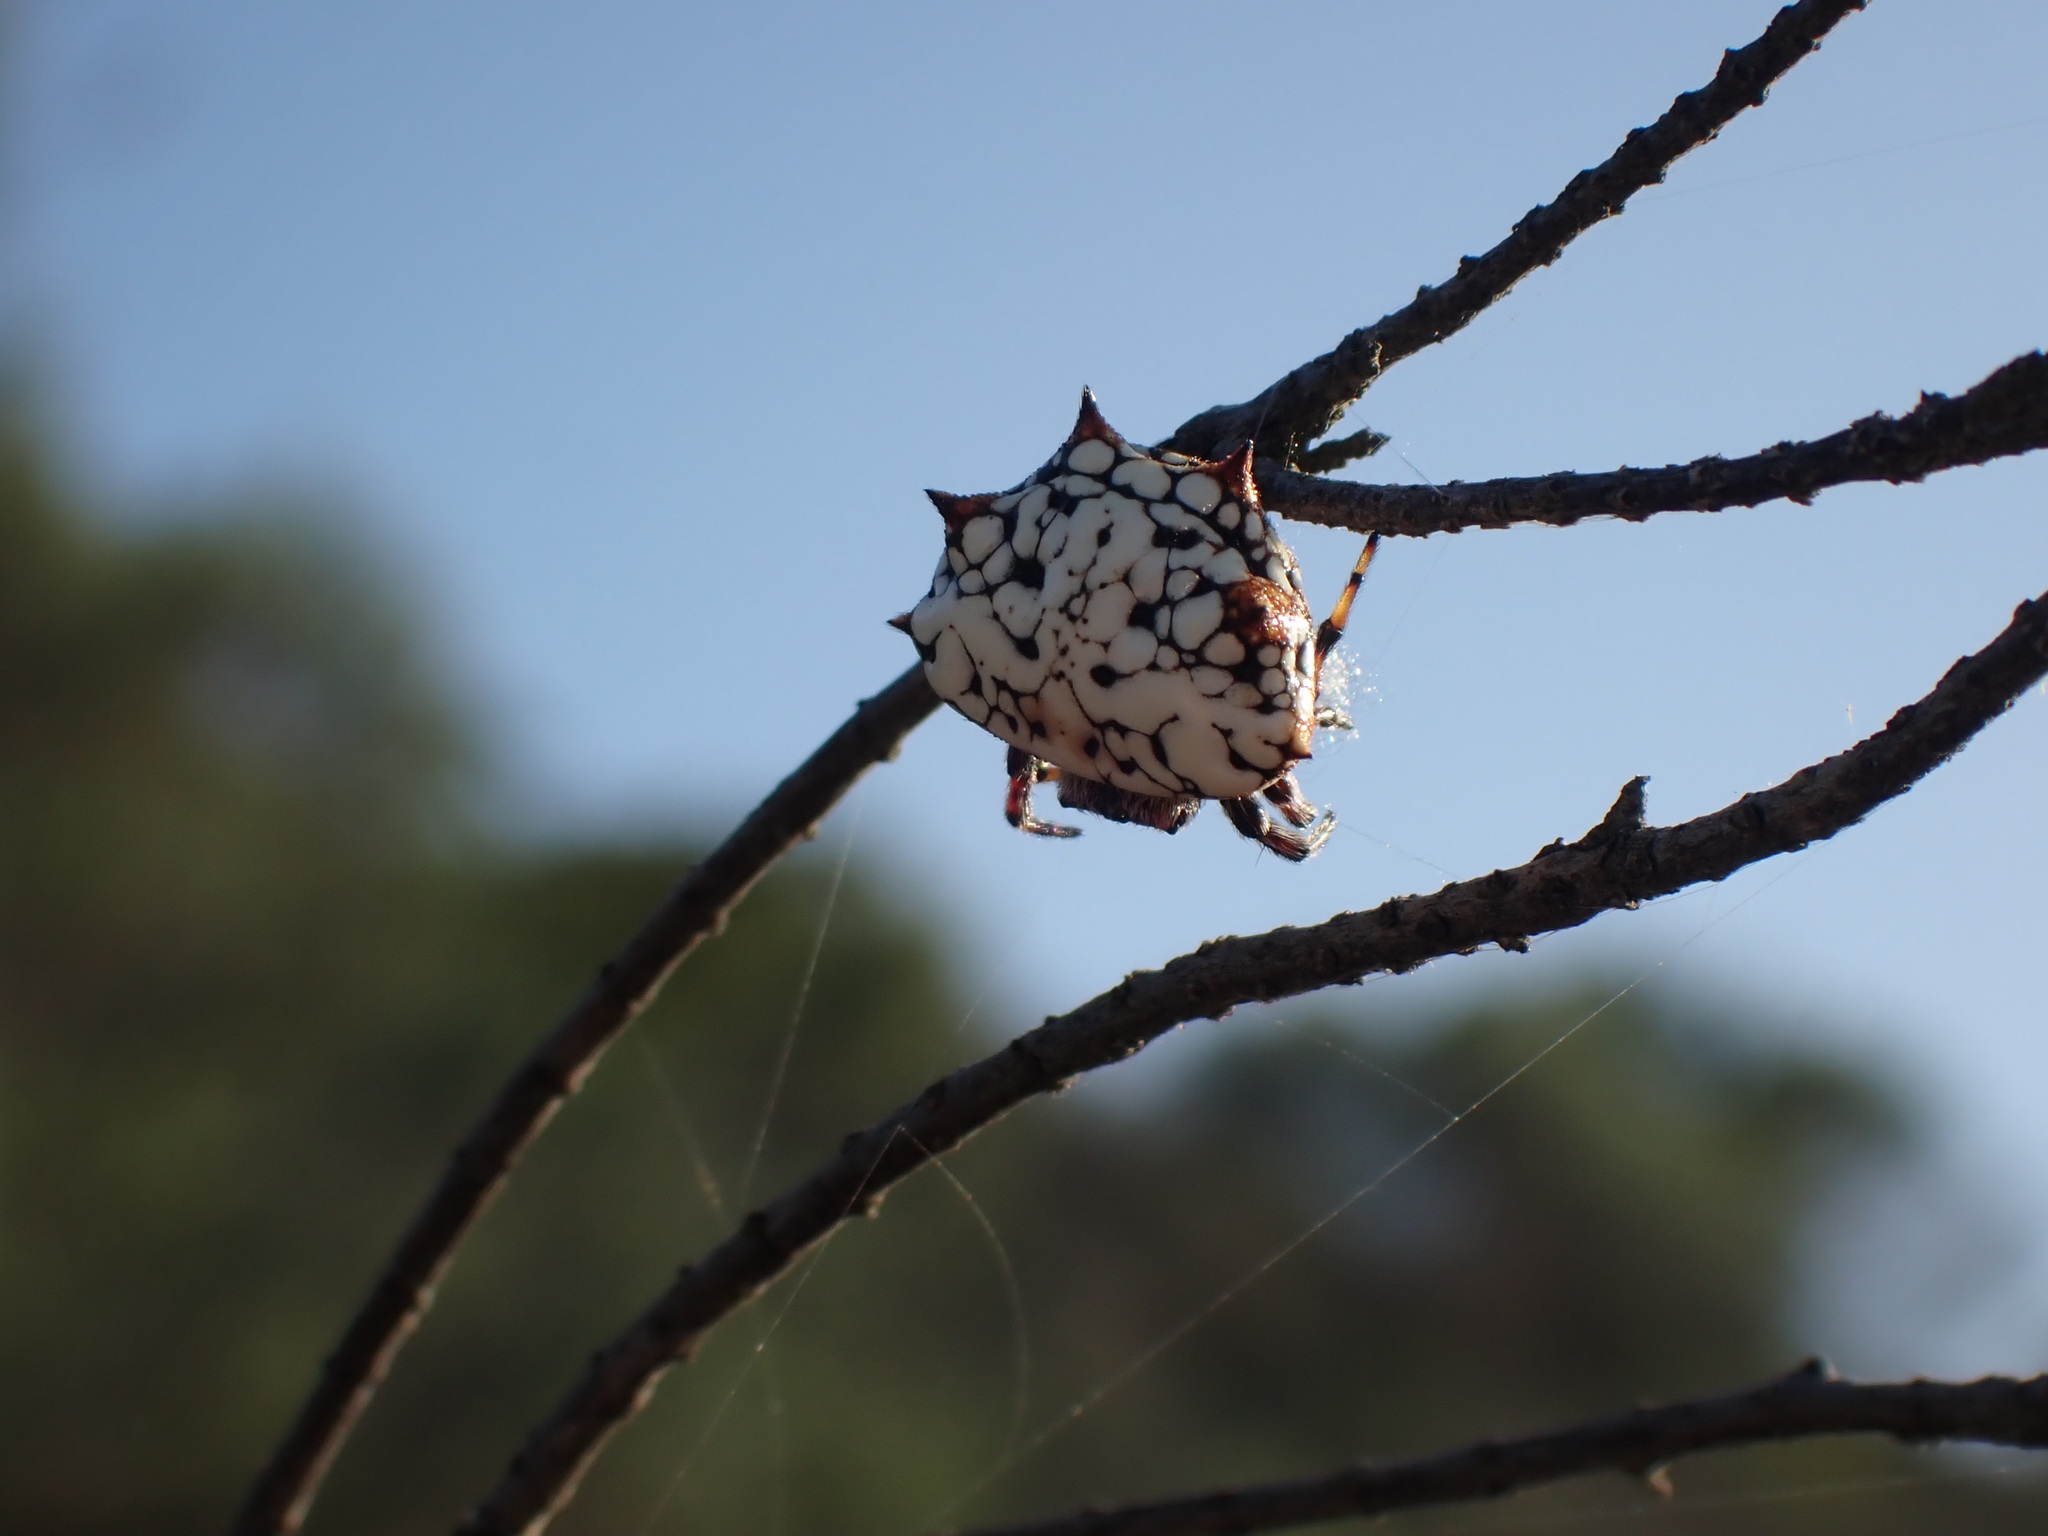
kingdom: Animalia
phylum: Arthropoda
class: Arachnida
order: Araneae
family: Araneidae
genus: Isoxya
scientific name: Isoxya mossamedensis
